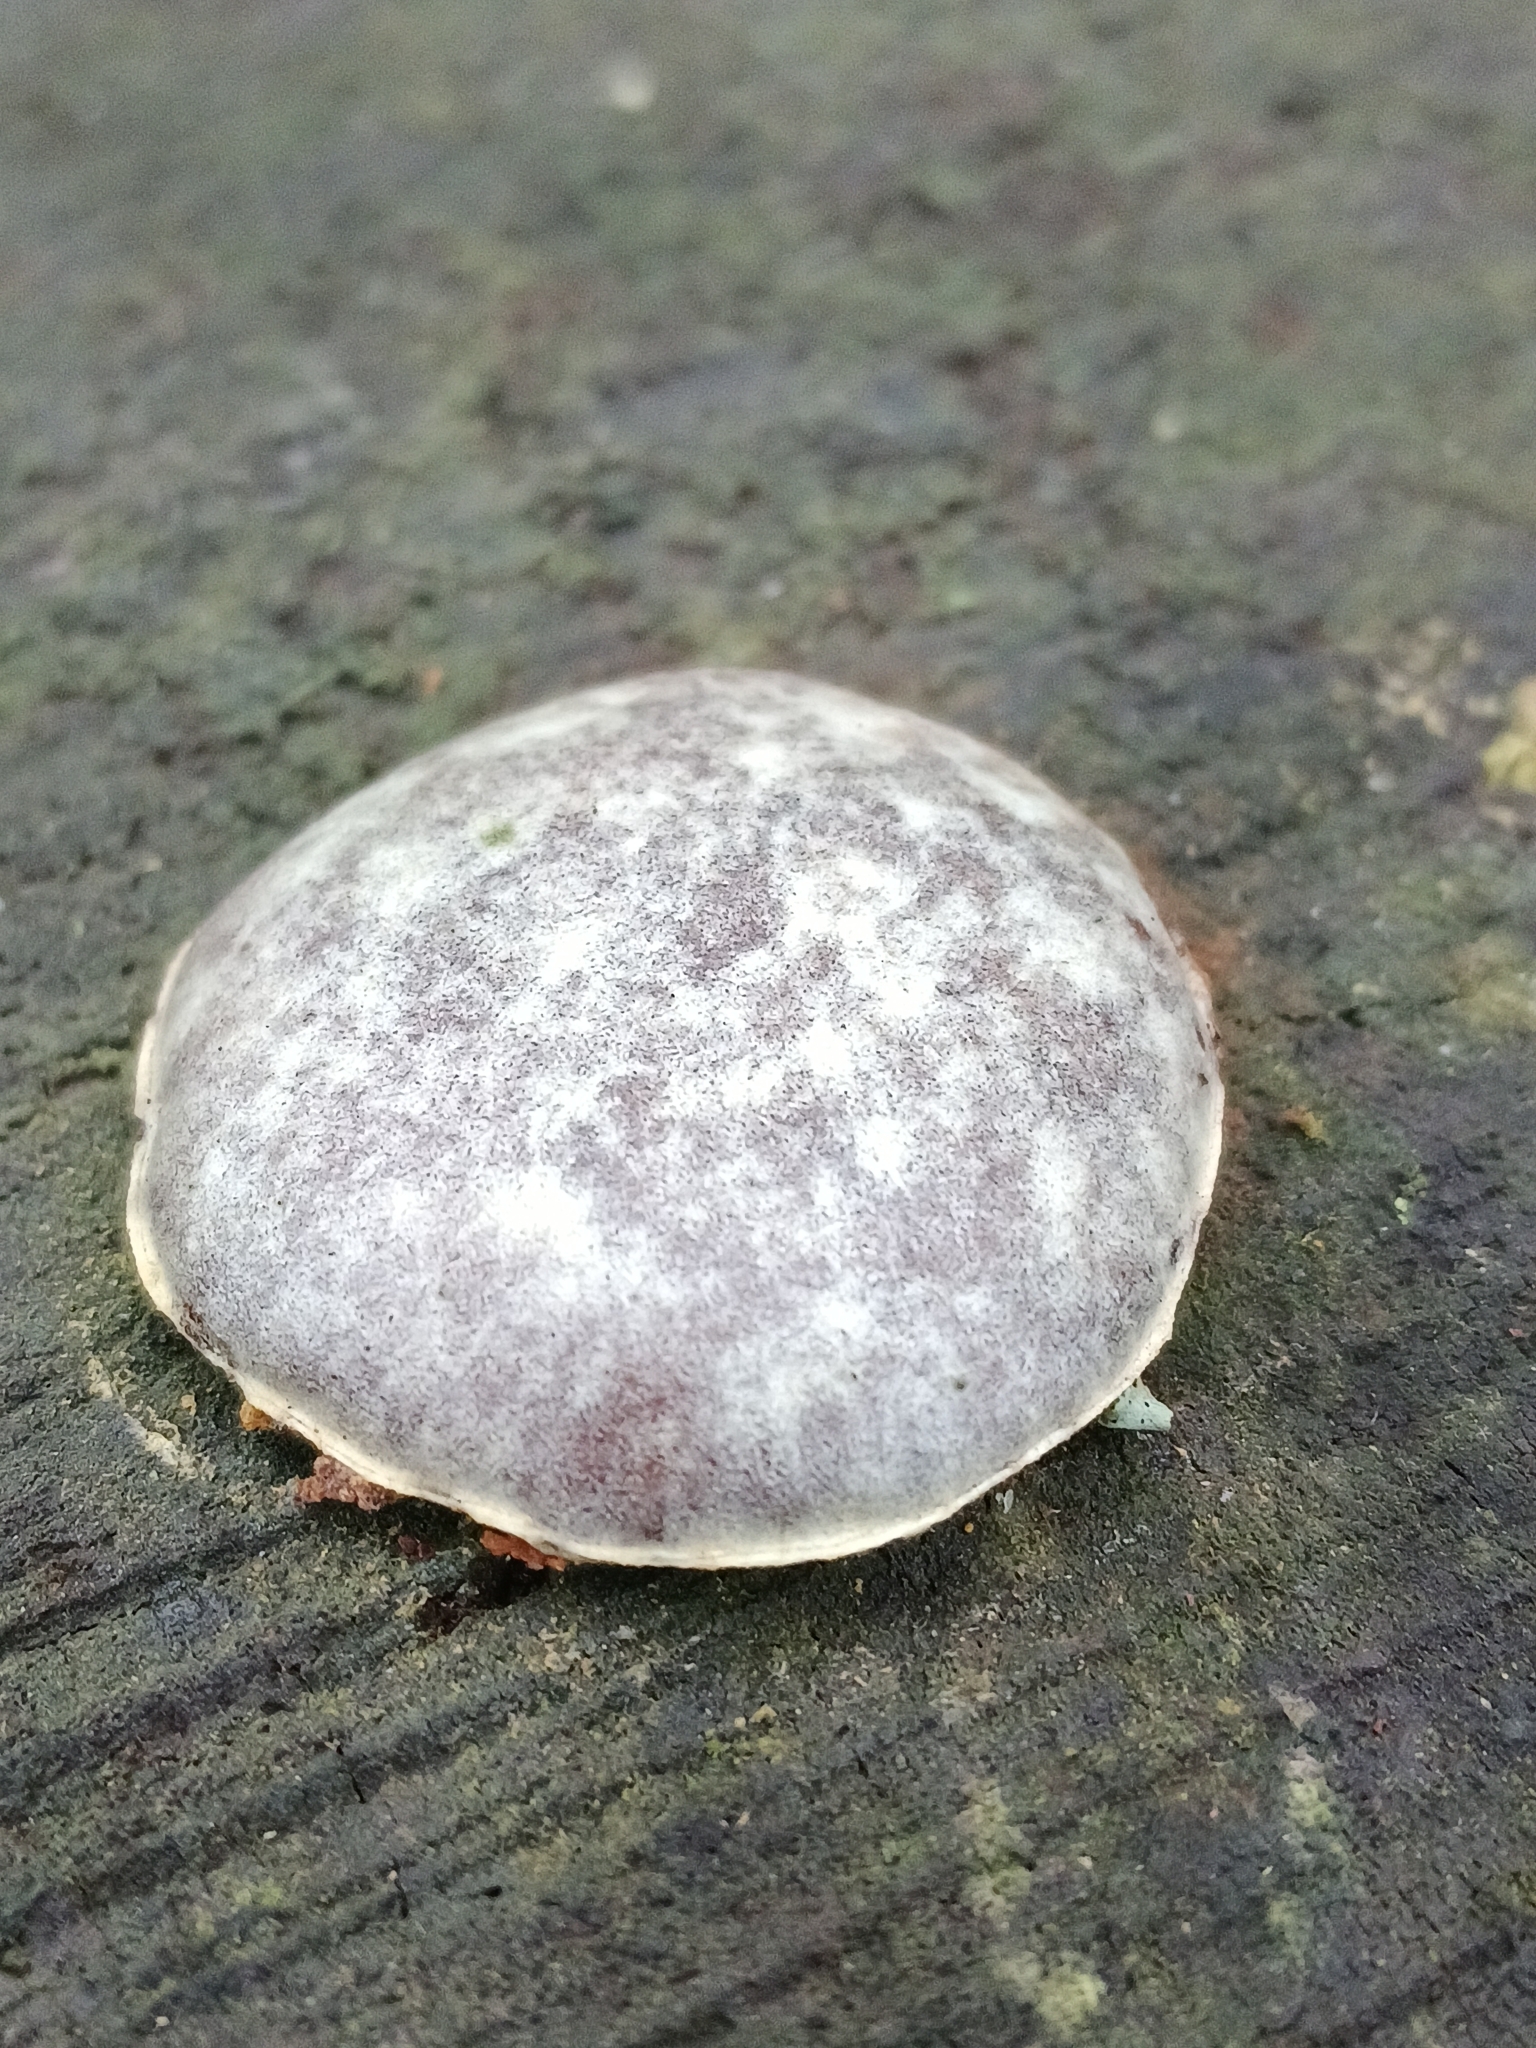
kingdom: Protozoa
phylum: Mycetozoa
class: Myxomycetes
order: Cribrariales
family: Tubiferaceae
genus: Reticularia
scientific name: Reticularia lycoperdon
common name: False puffball
